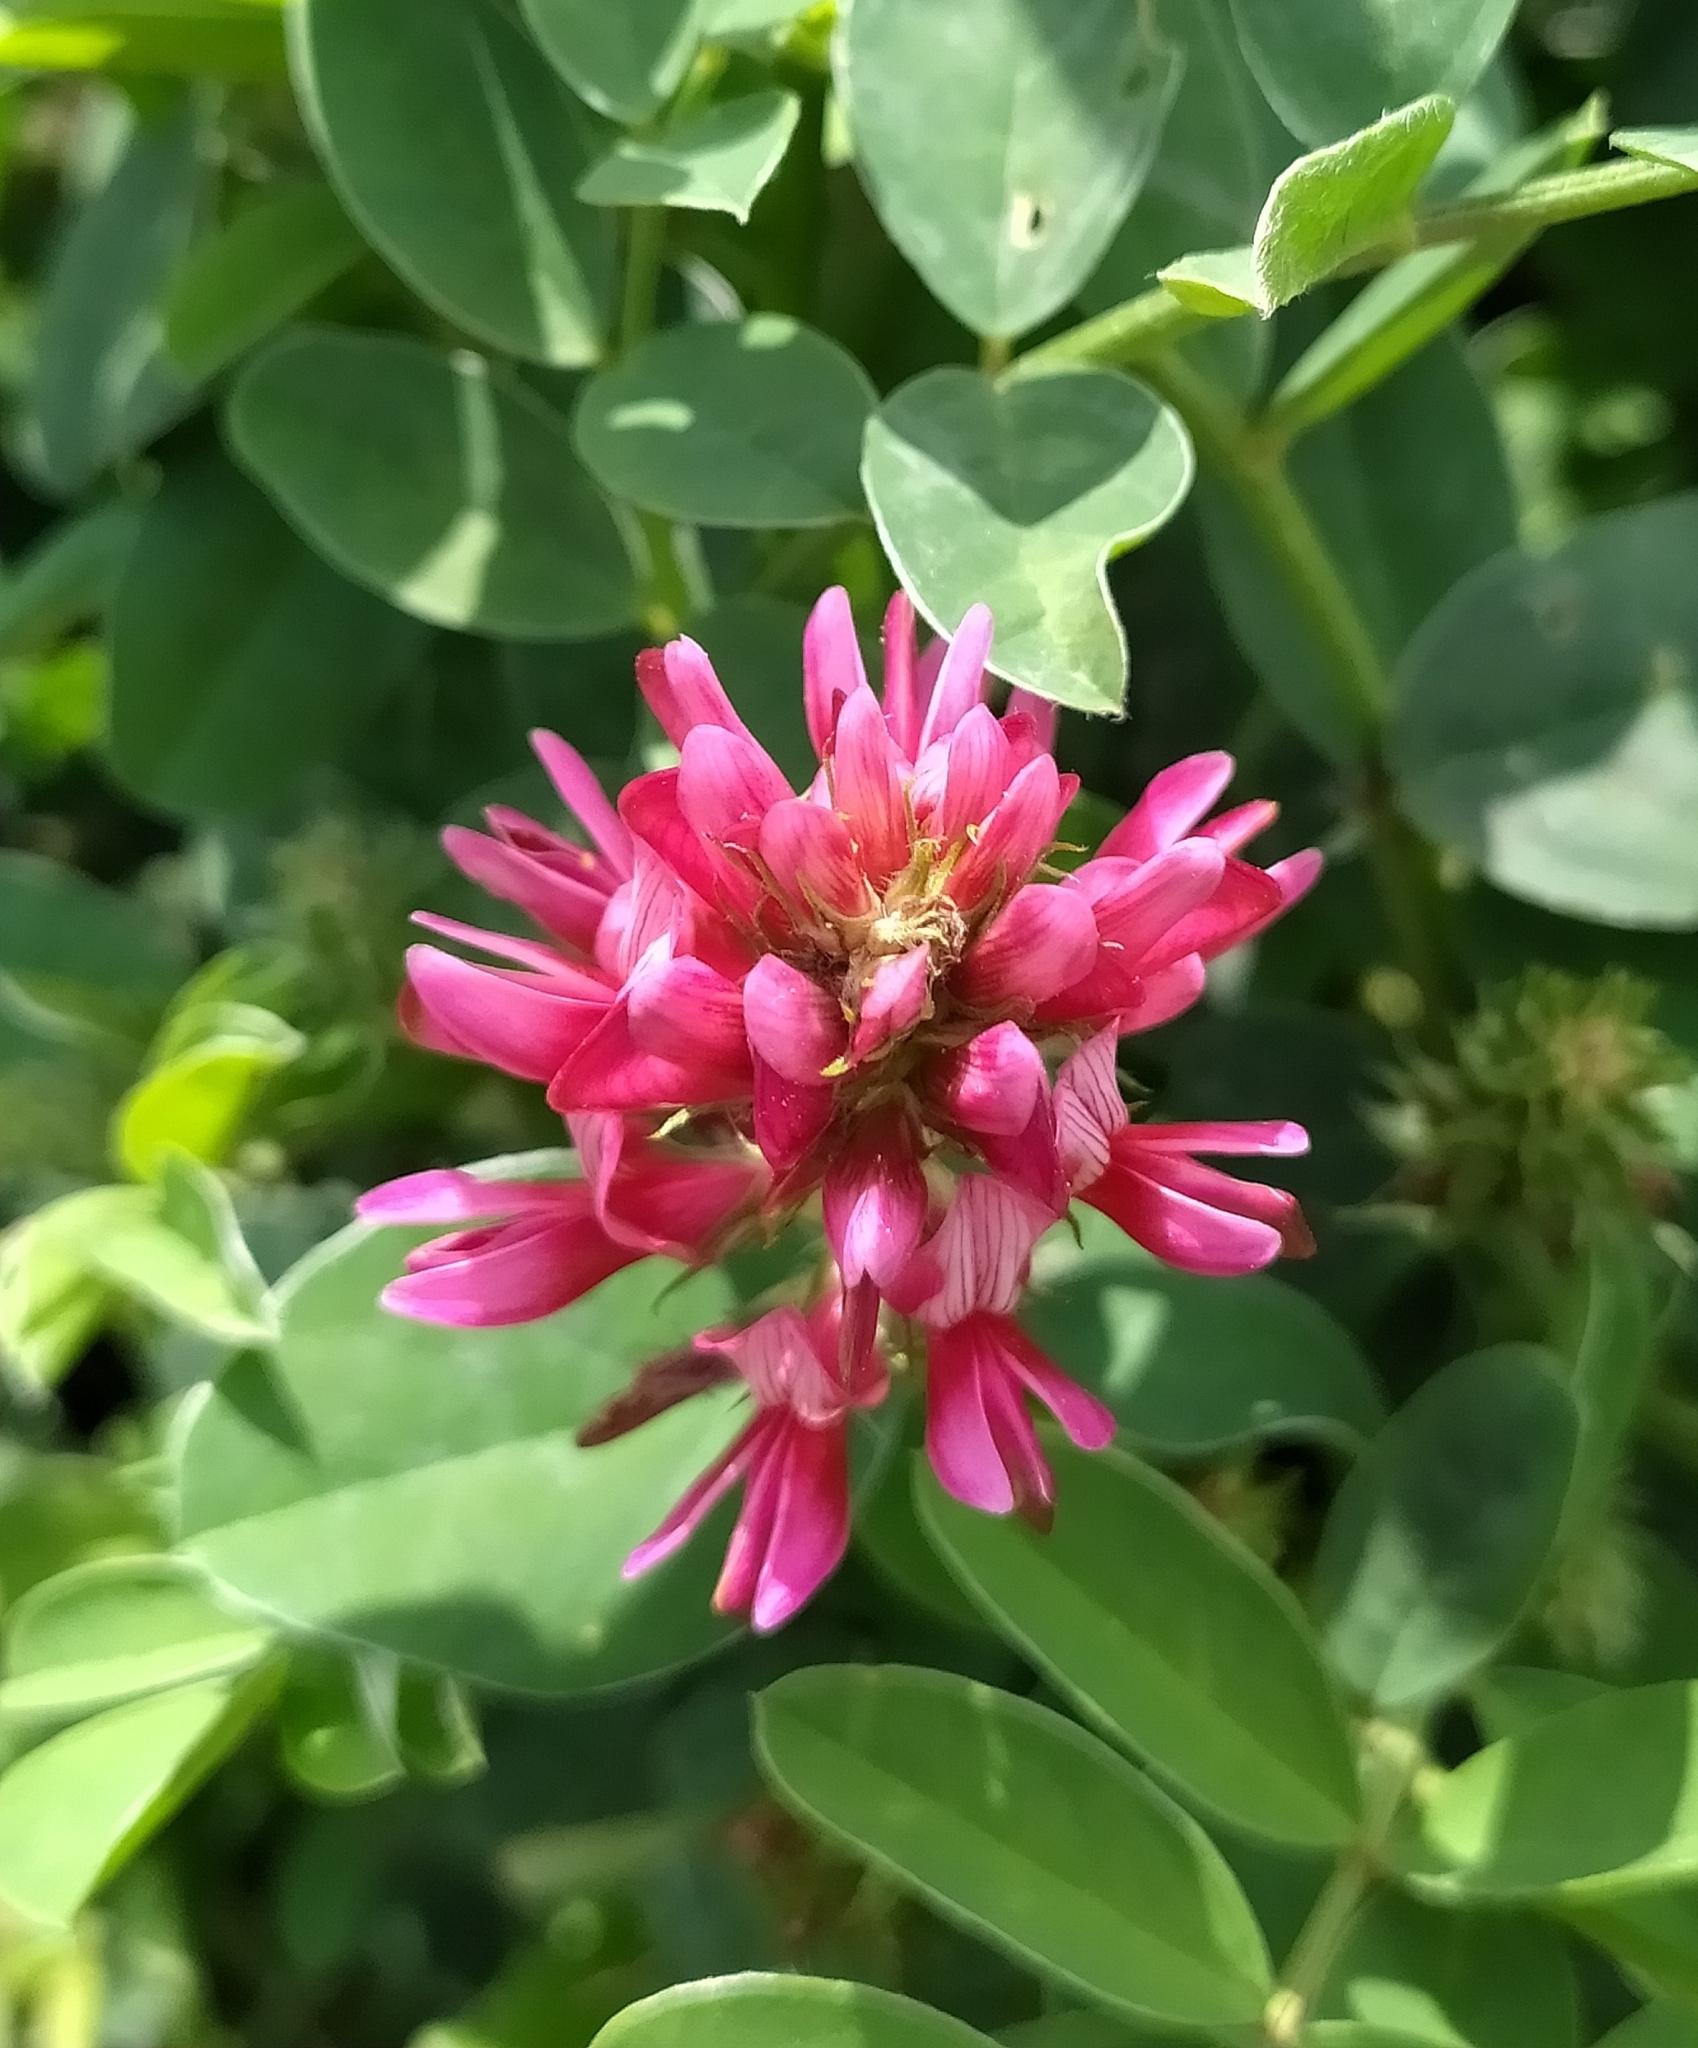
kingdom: Plantae
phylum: Tracheophyta
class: Magnoliopsida
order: Fabales
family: Fabaceae
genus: Sulla
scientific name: Sulla coronaria
